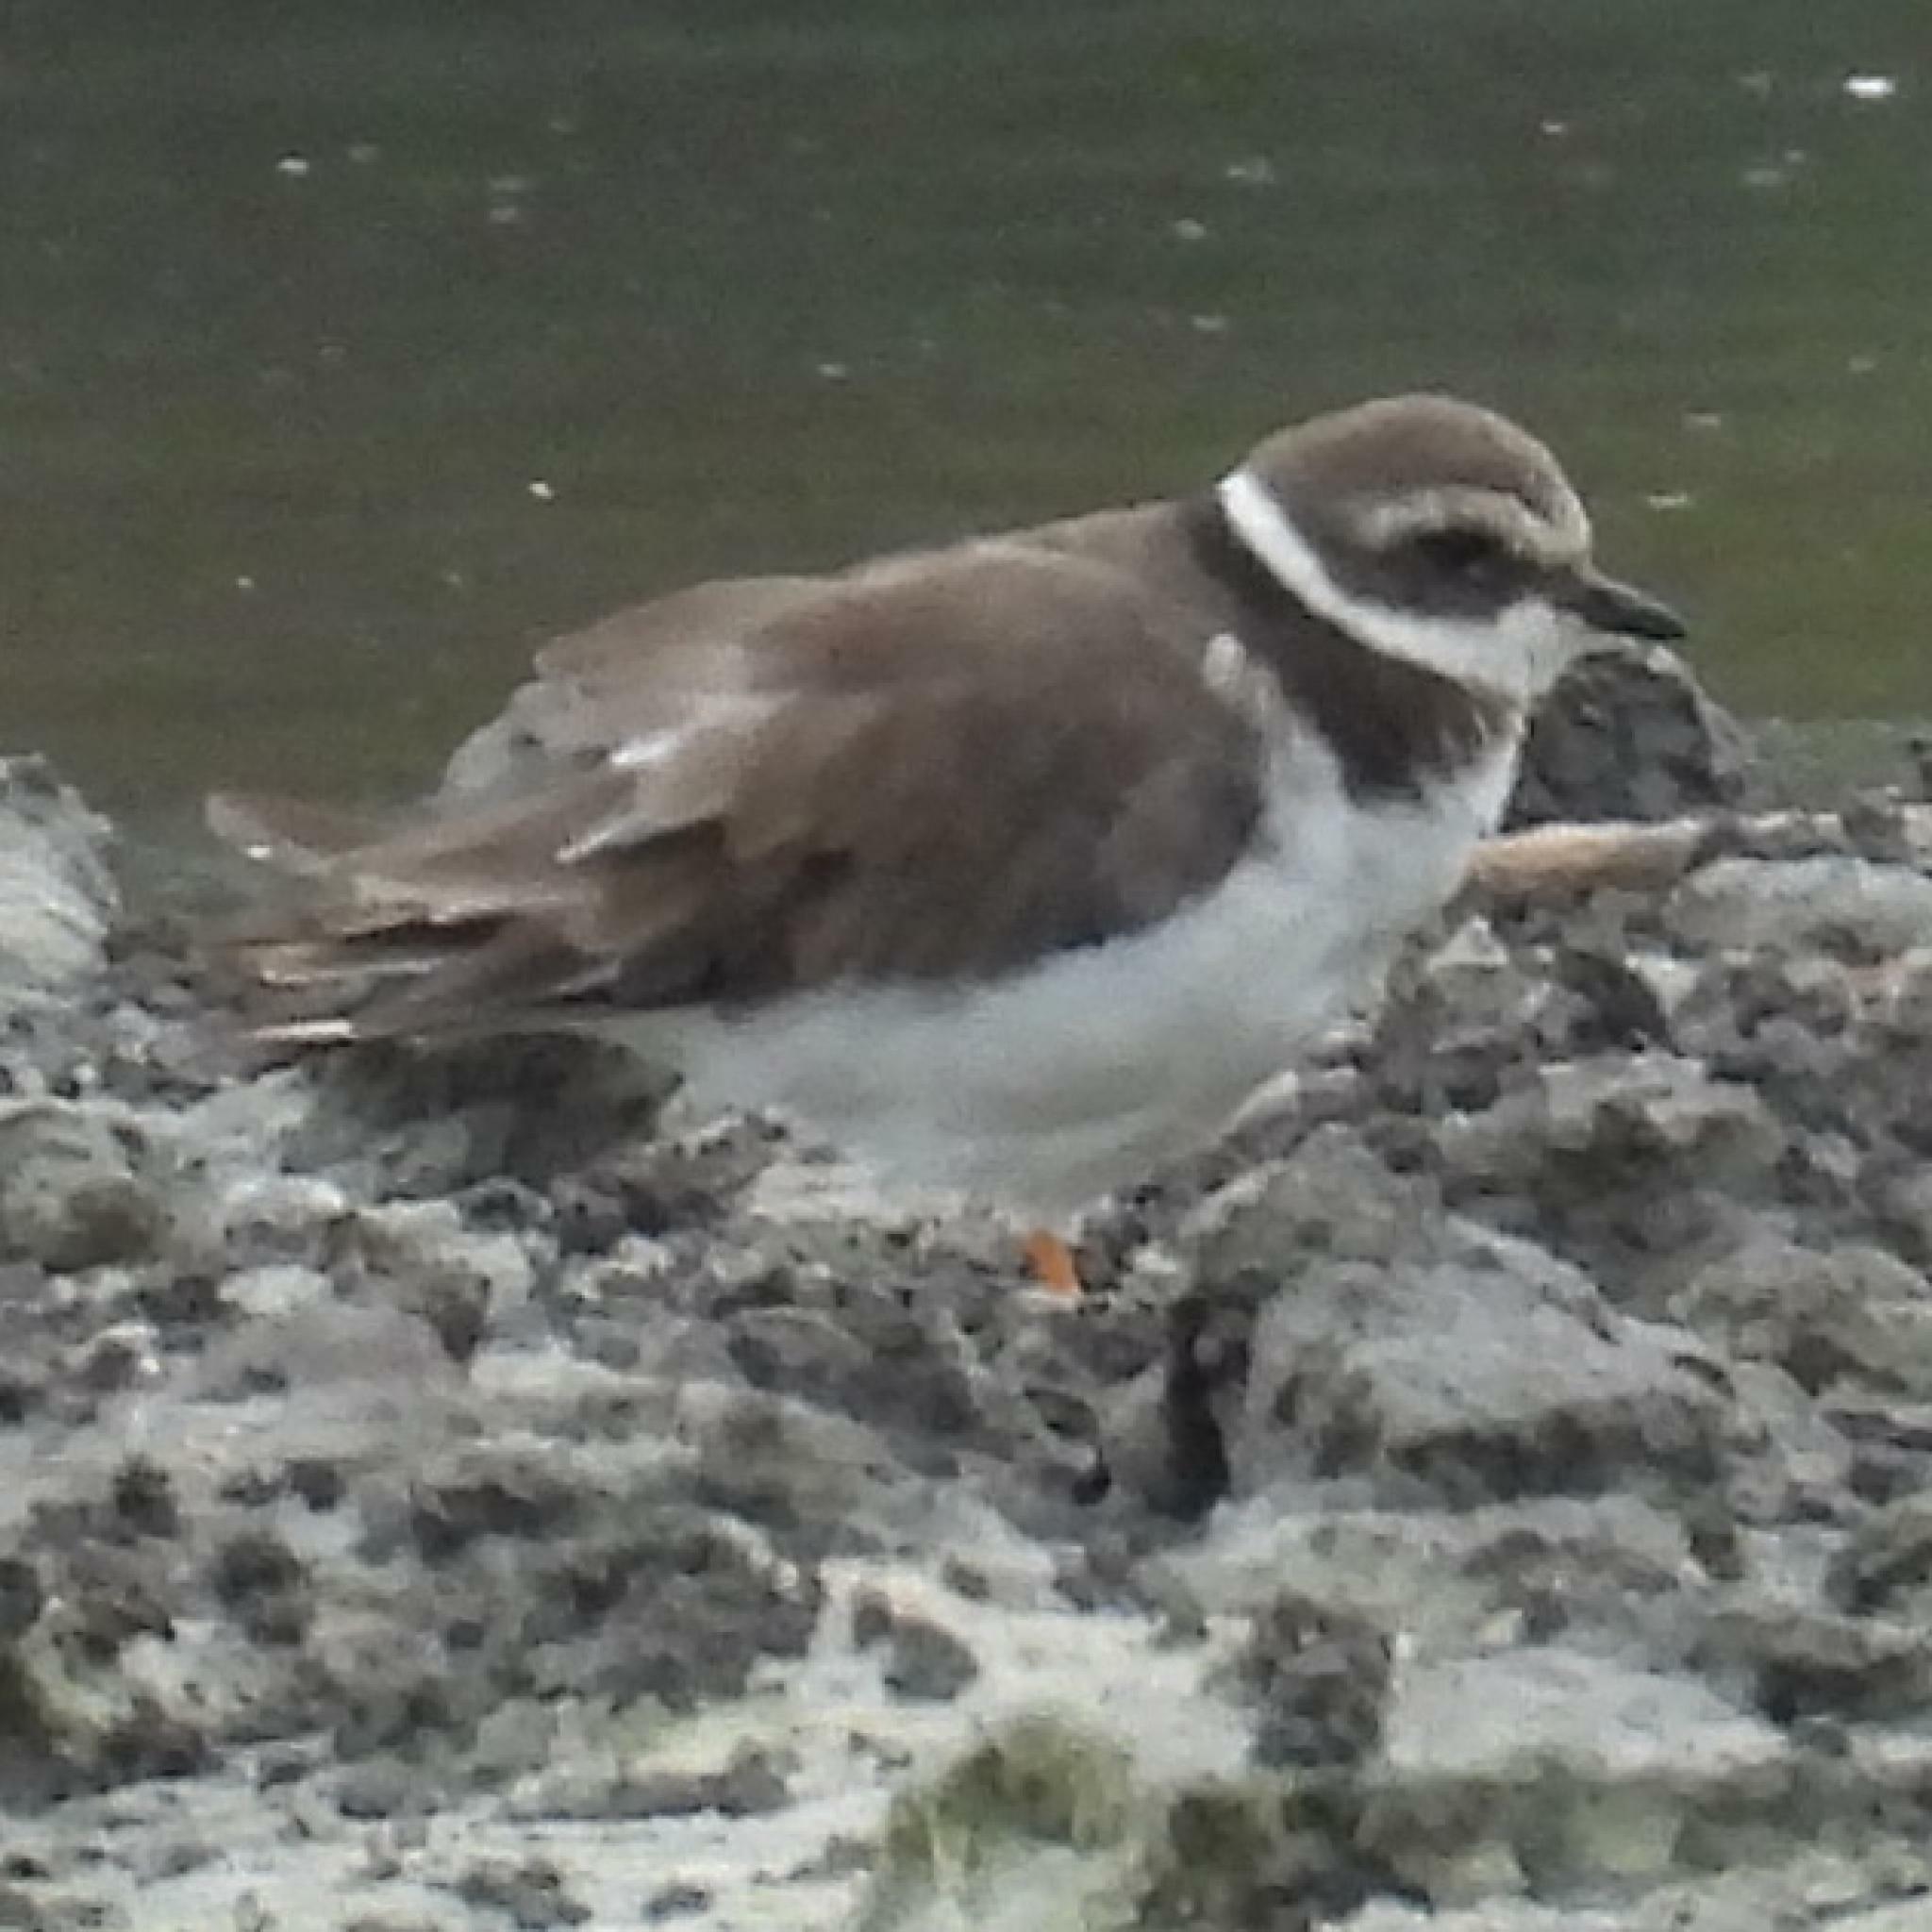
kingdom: Animalia
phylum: Chordata
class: Aves
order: Charadriiformes
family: Charadriidae
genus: Charadrius
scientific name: Charadrius hiaticula
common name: Common ringed plover
